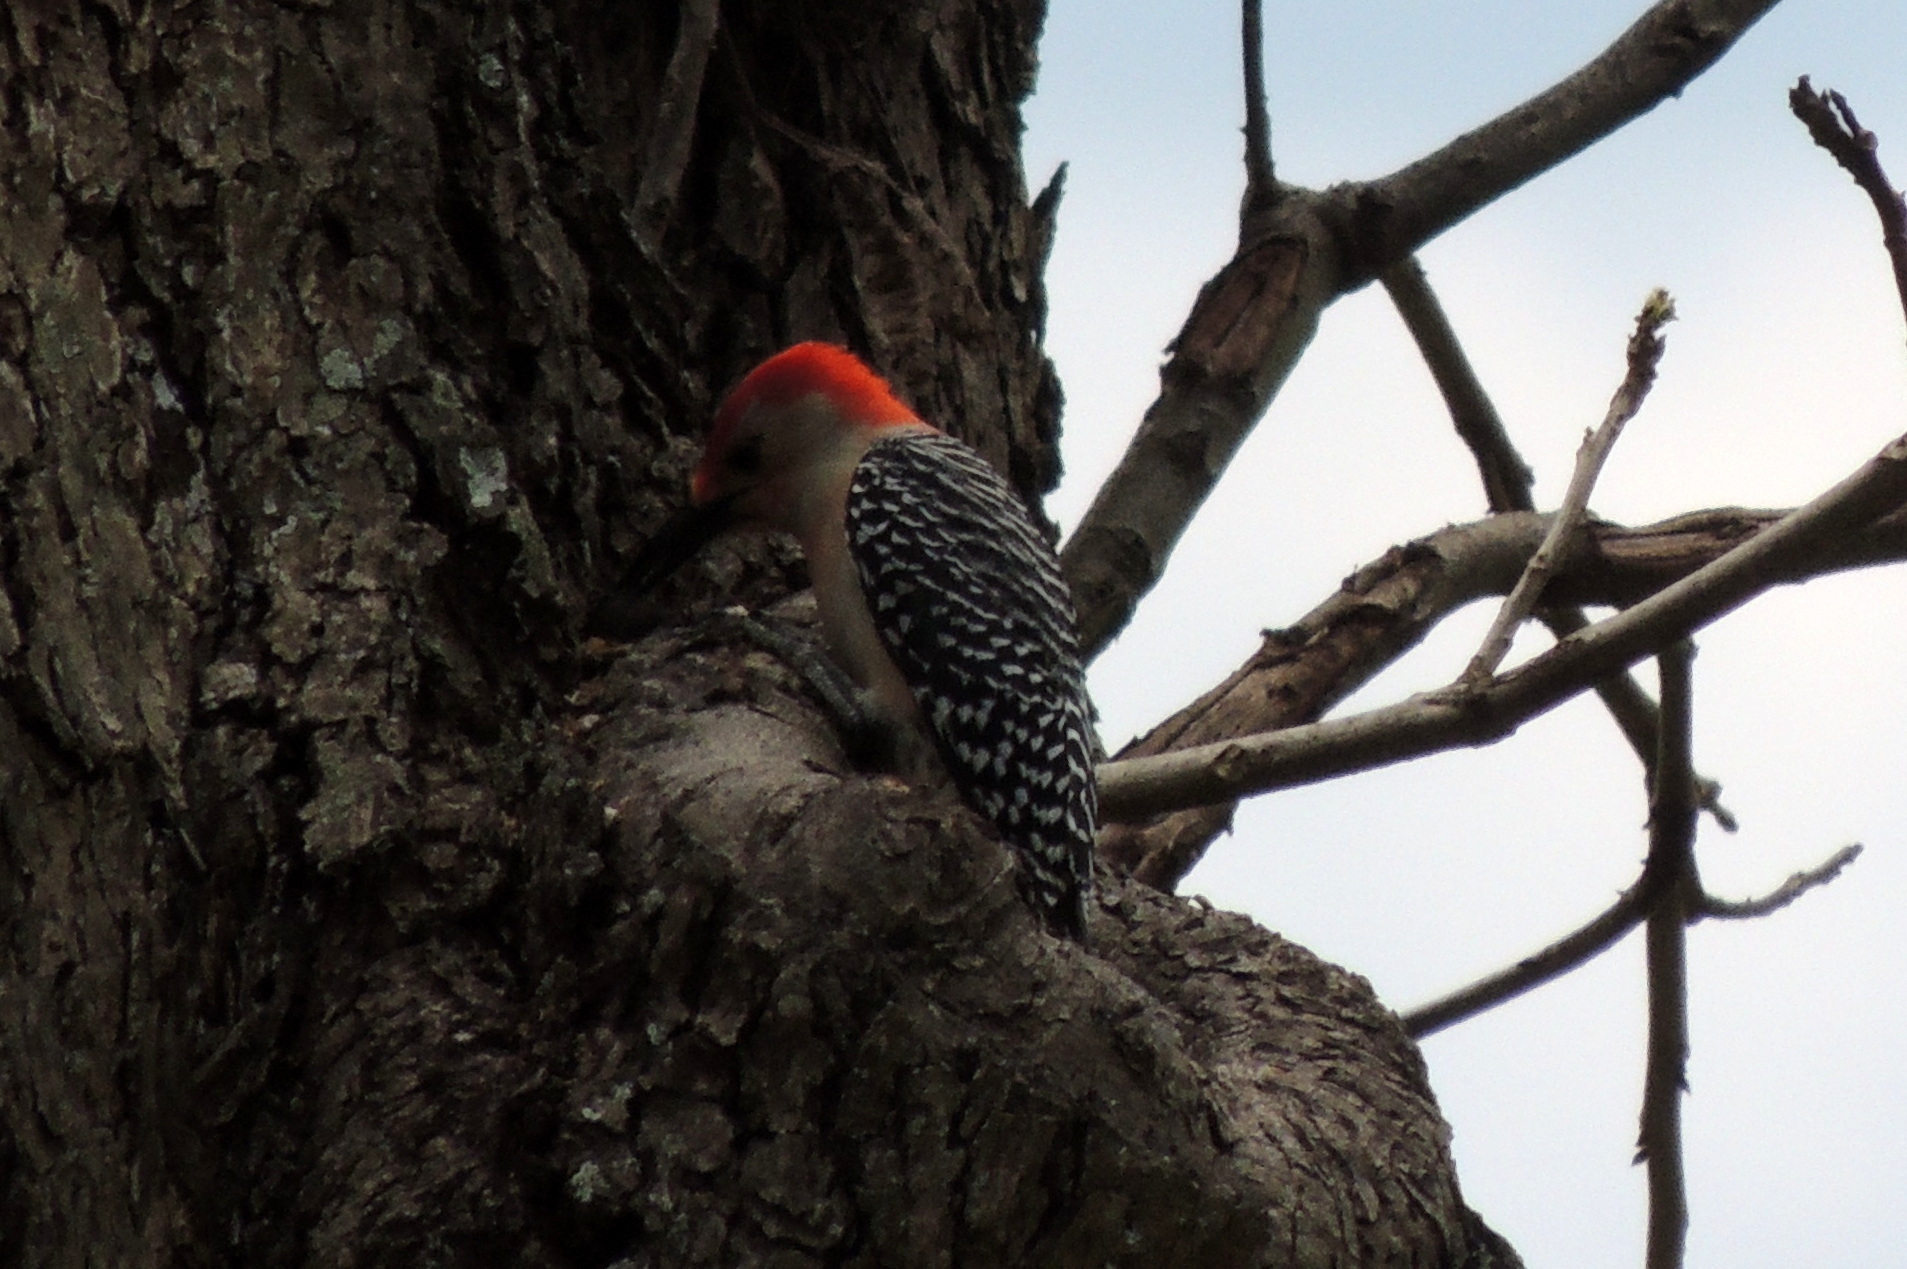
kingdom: Animalia
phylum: Chordata
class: Aves
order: Piciformes
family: Picidae
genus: Melanerpes
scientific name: Melanerpes carolinus
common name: Red-bellied woodpecker
